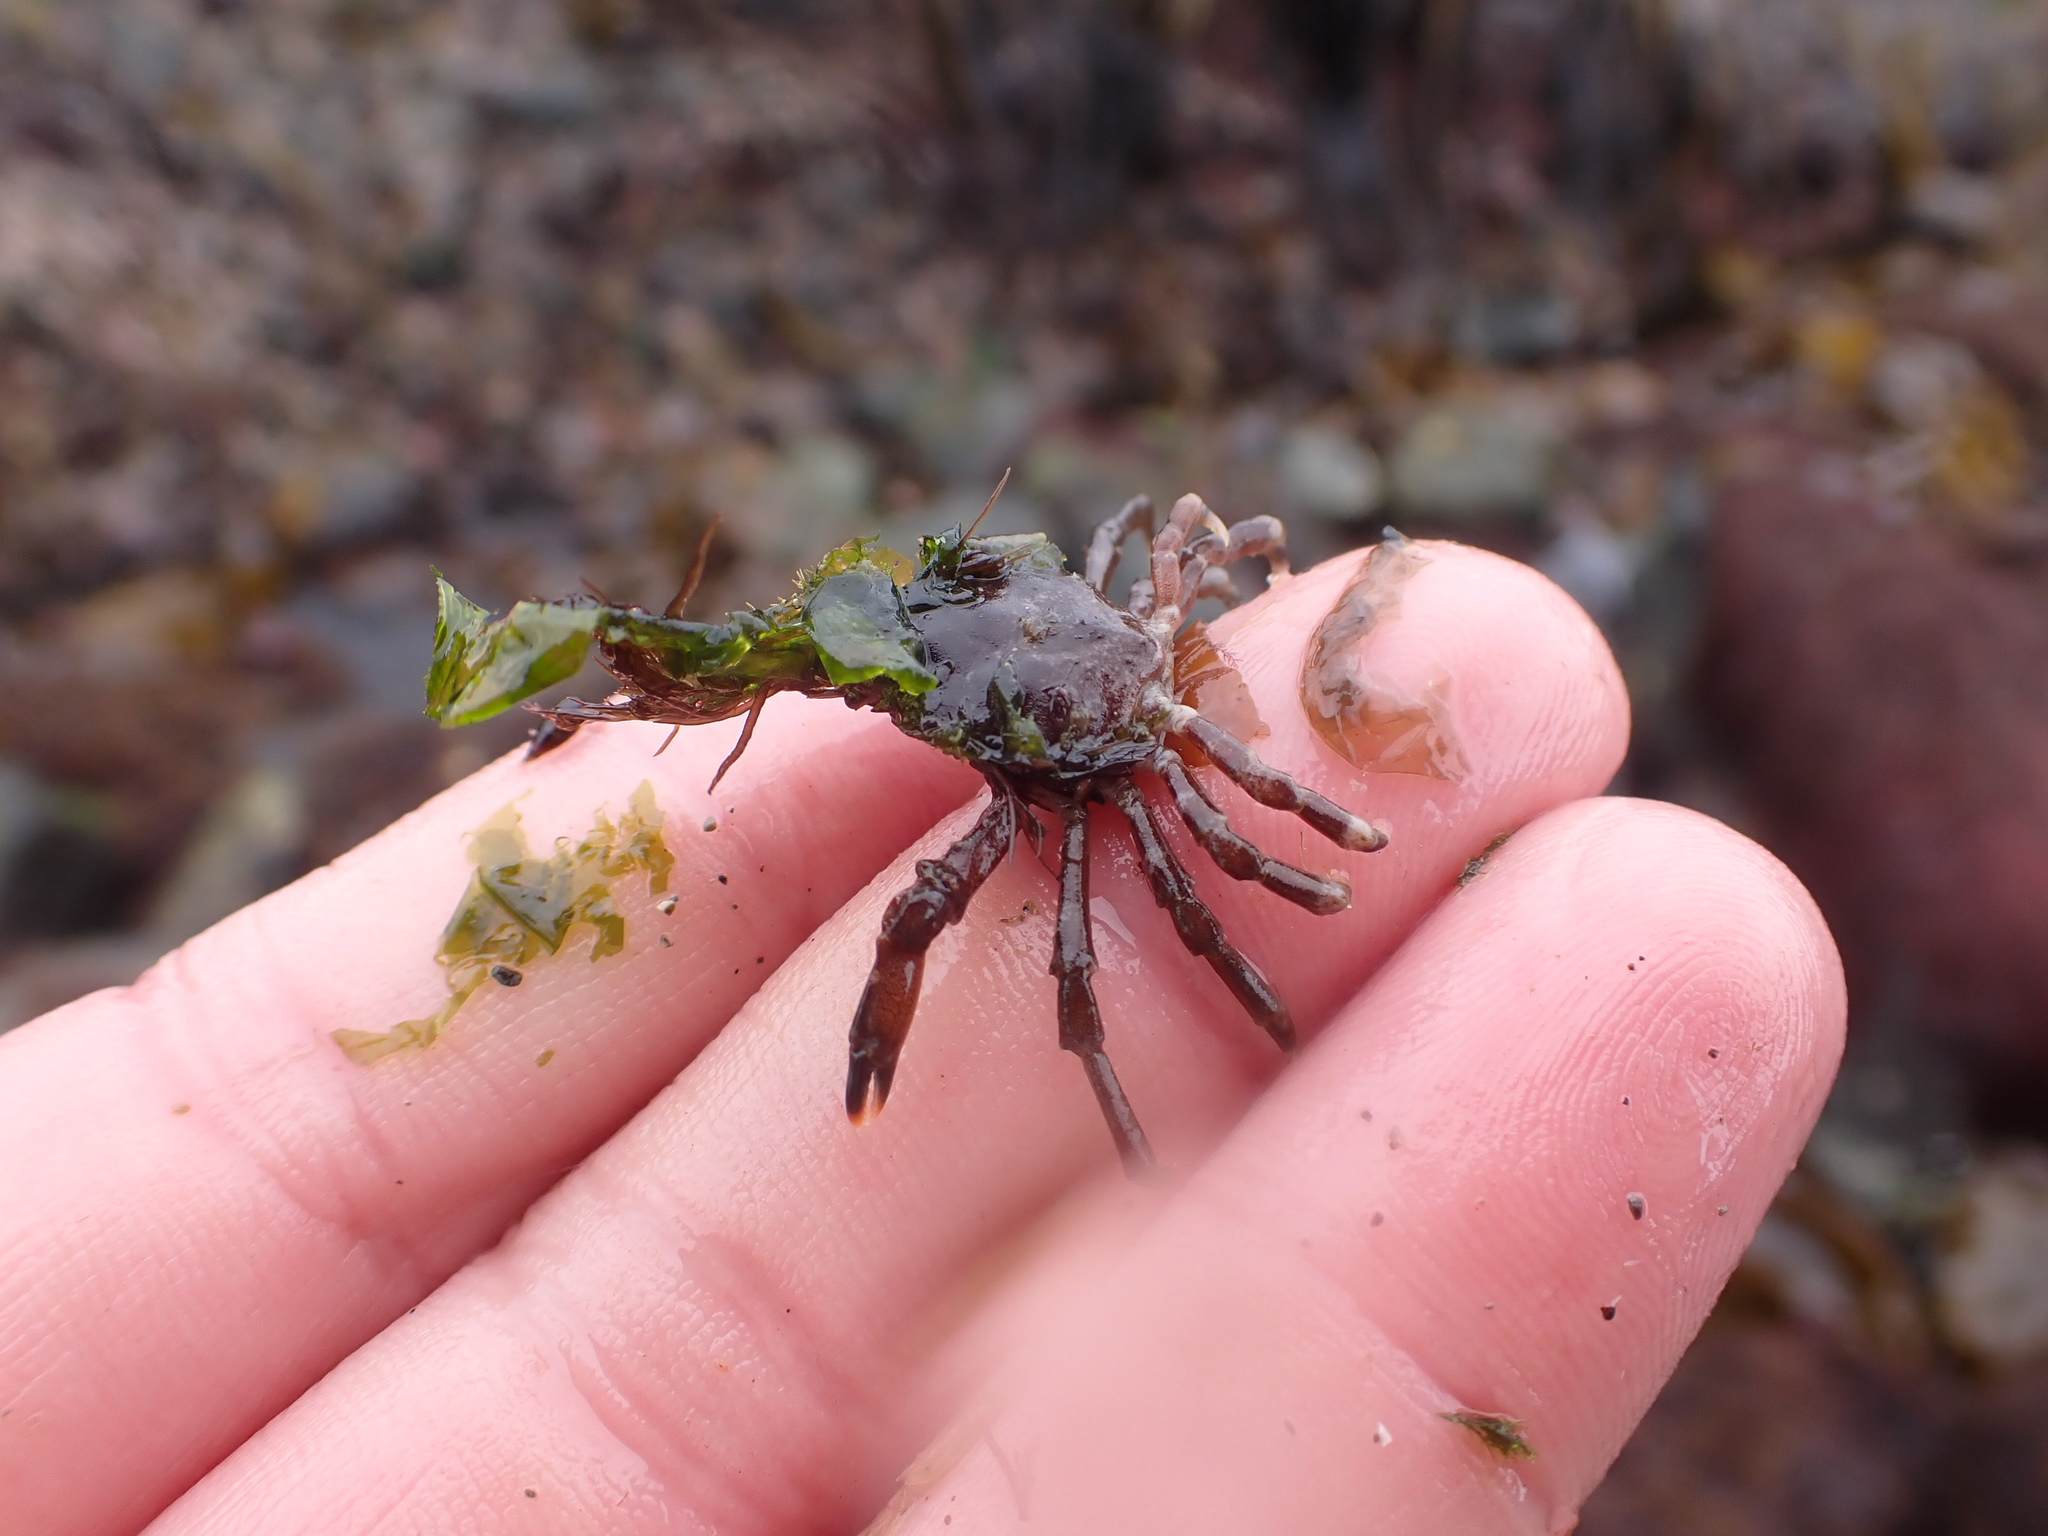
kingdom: Animalia
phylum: Arthropoda
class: Malacostraca
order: Decapoda
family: Epialtidae
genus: Pugettia
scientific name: Pugettia gracilis
